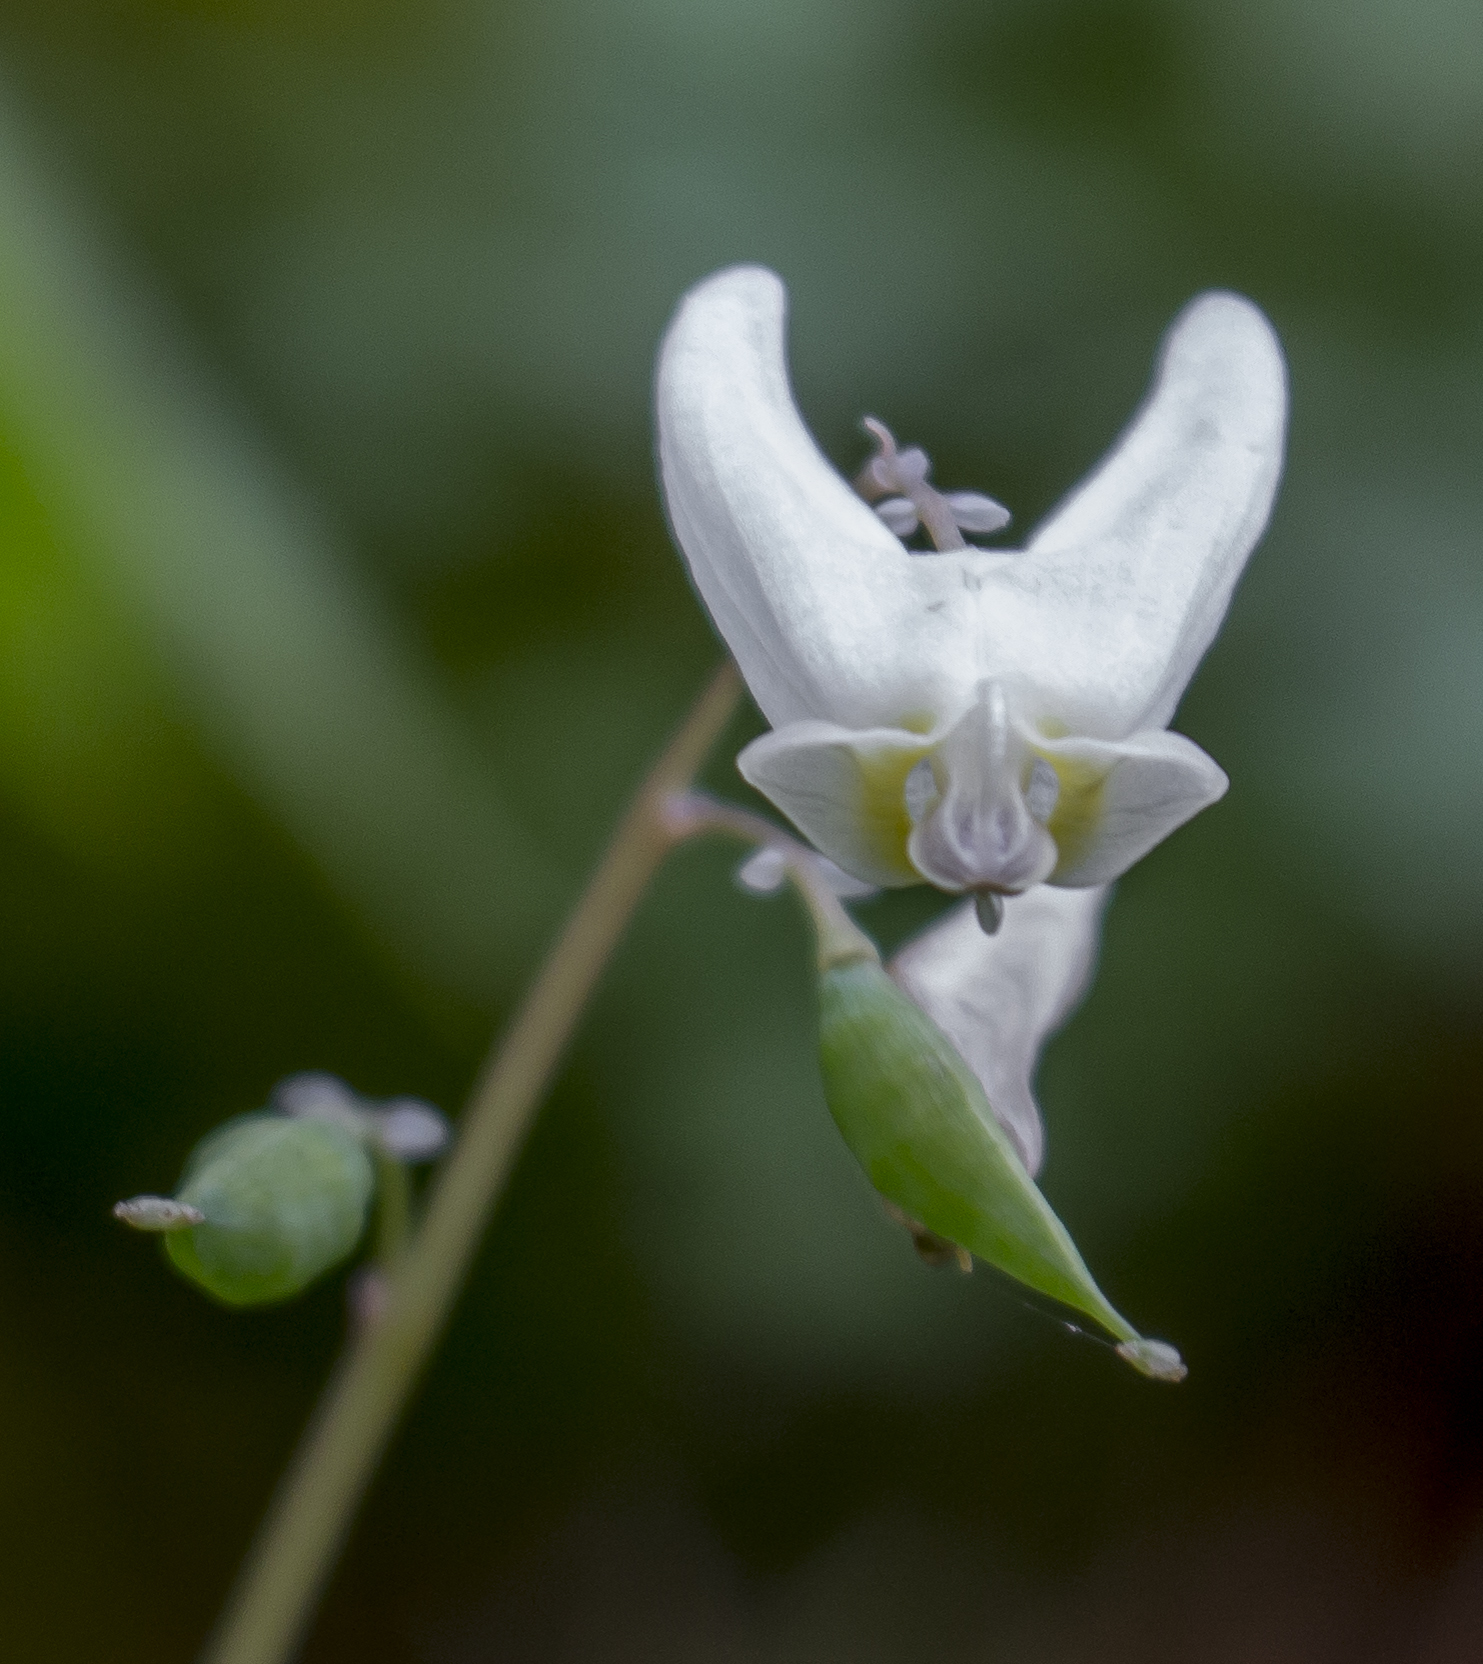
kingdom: Plantae
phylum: Tracheophyta
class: Magnoliopsida
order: Ranunculales
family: Papaveraceae
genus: Dicentra
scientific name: Dicentra cucullaria
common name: Dutchman's breeches
